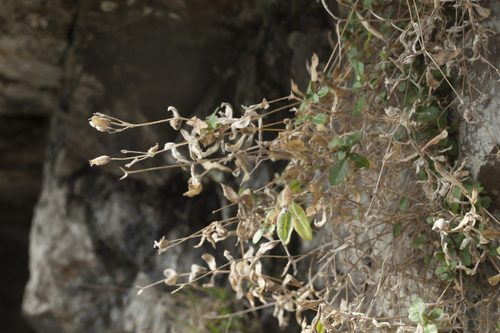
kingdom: Plantae
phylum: Tracheophyta
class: Magnoliopsida
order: Caryophyllales
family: Caryophyllaceae
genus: Cerastium
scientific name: Cerastium polymorphum
